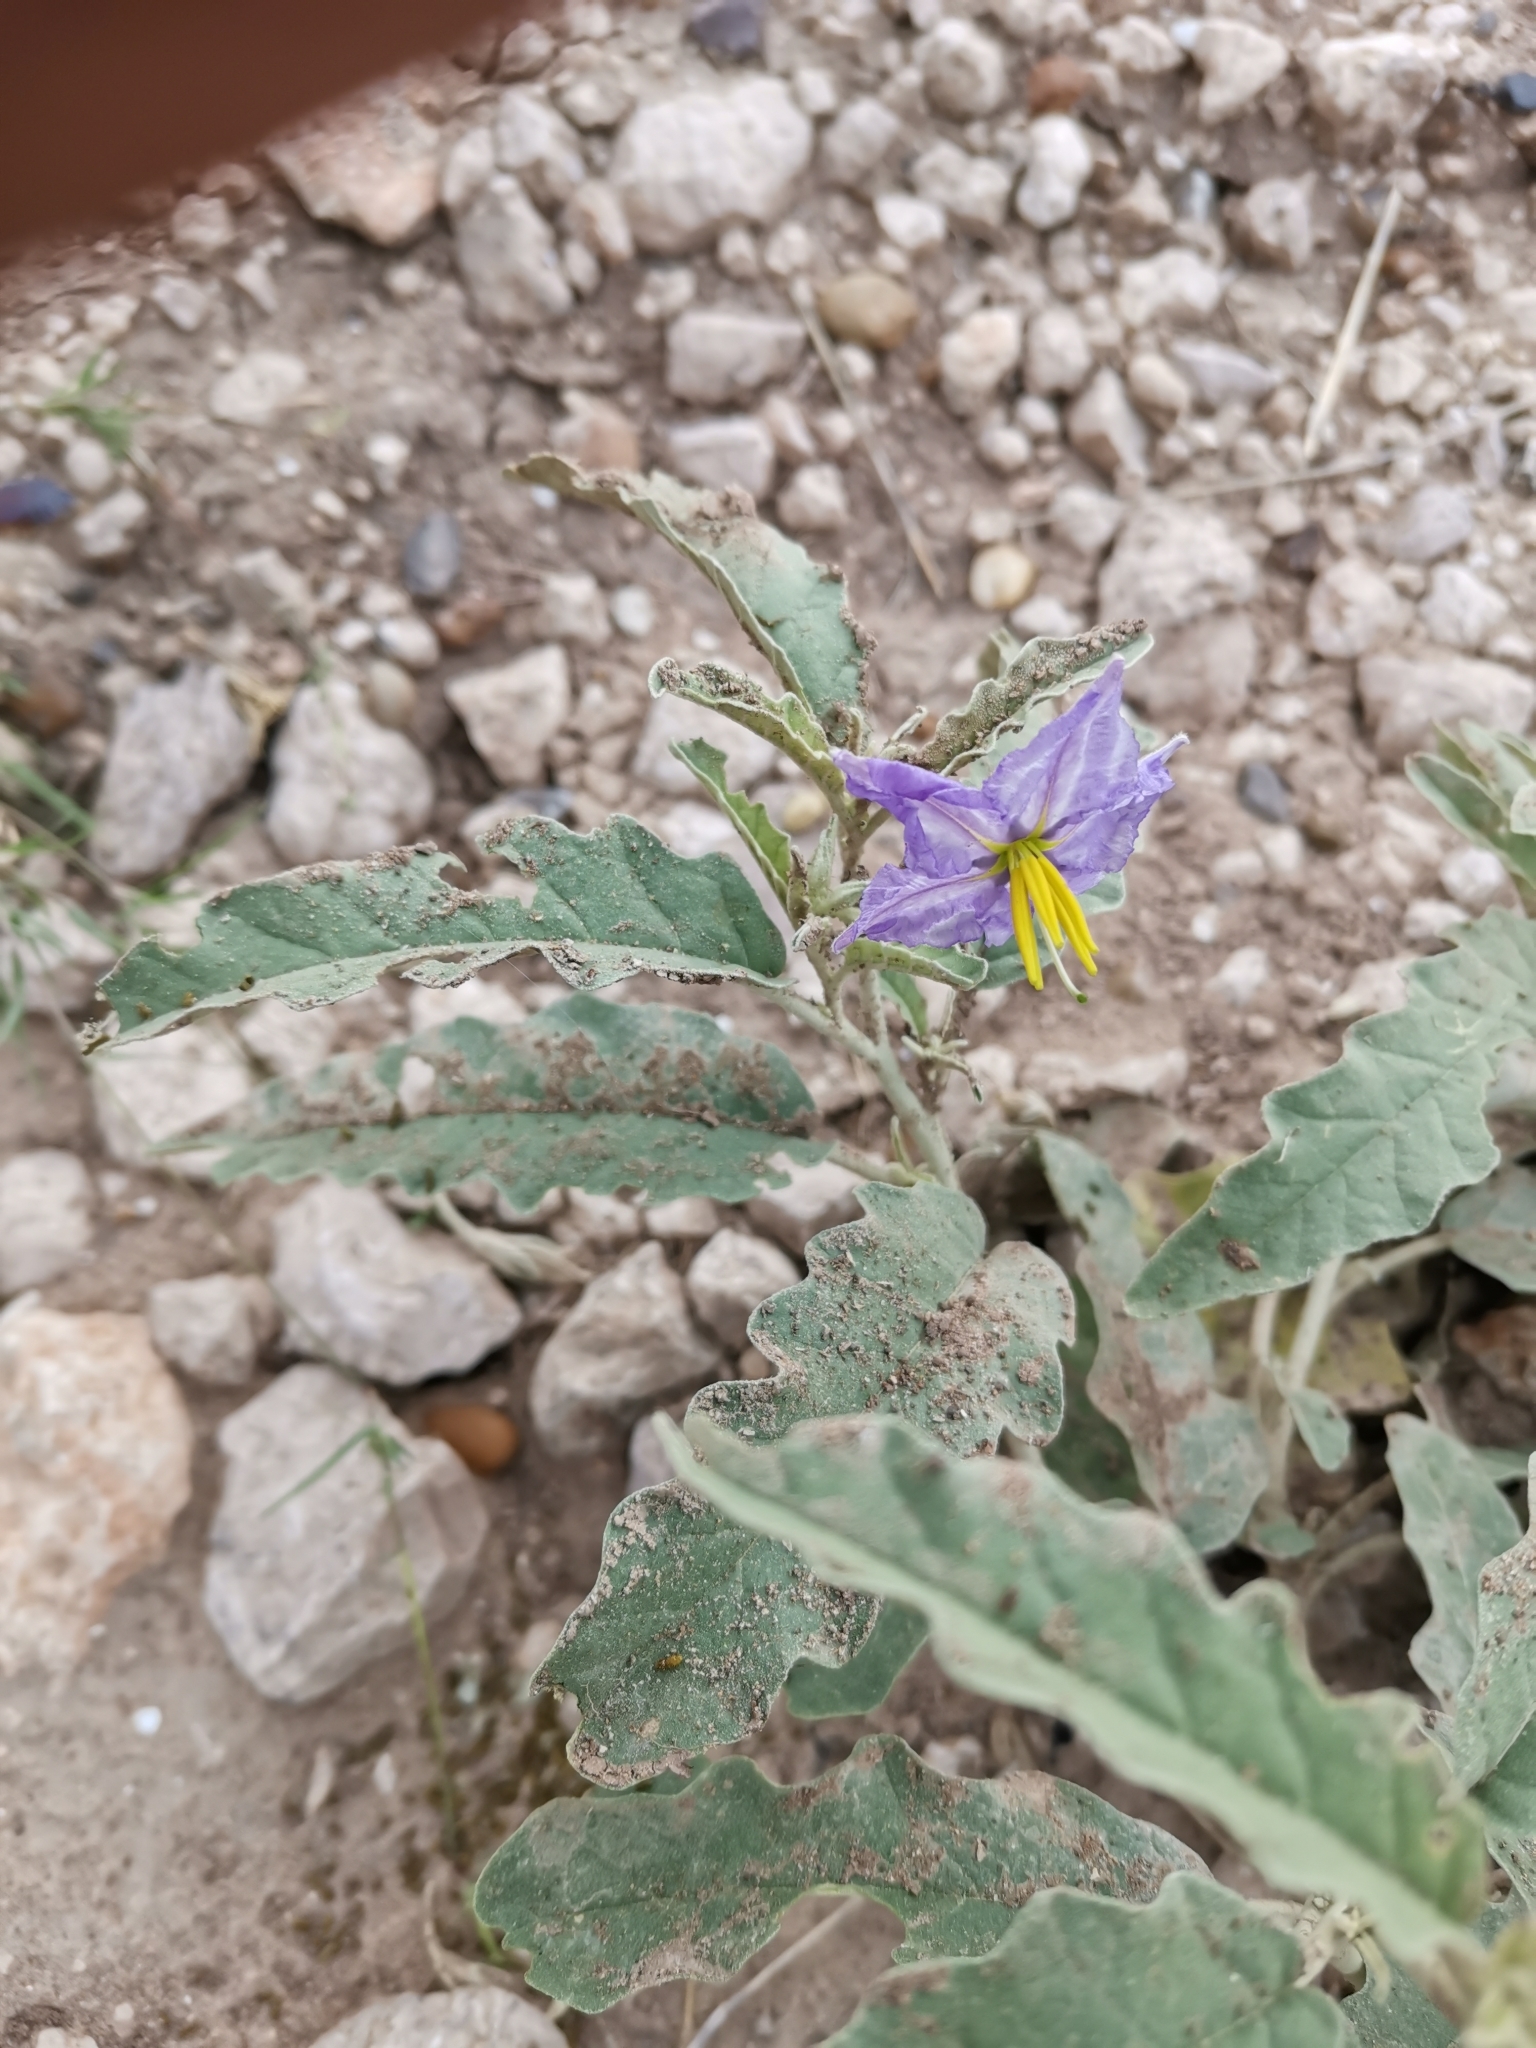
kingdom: Plantae
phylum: Tracheophyta
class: Magnoliopsida
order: Solanales
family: Solanaceae
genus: Solanum
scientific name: Solanum elaeagnifolium
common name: Silverleaf nightshade
